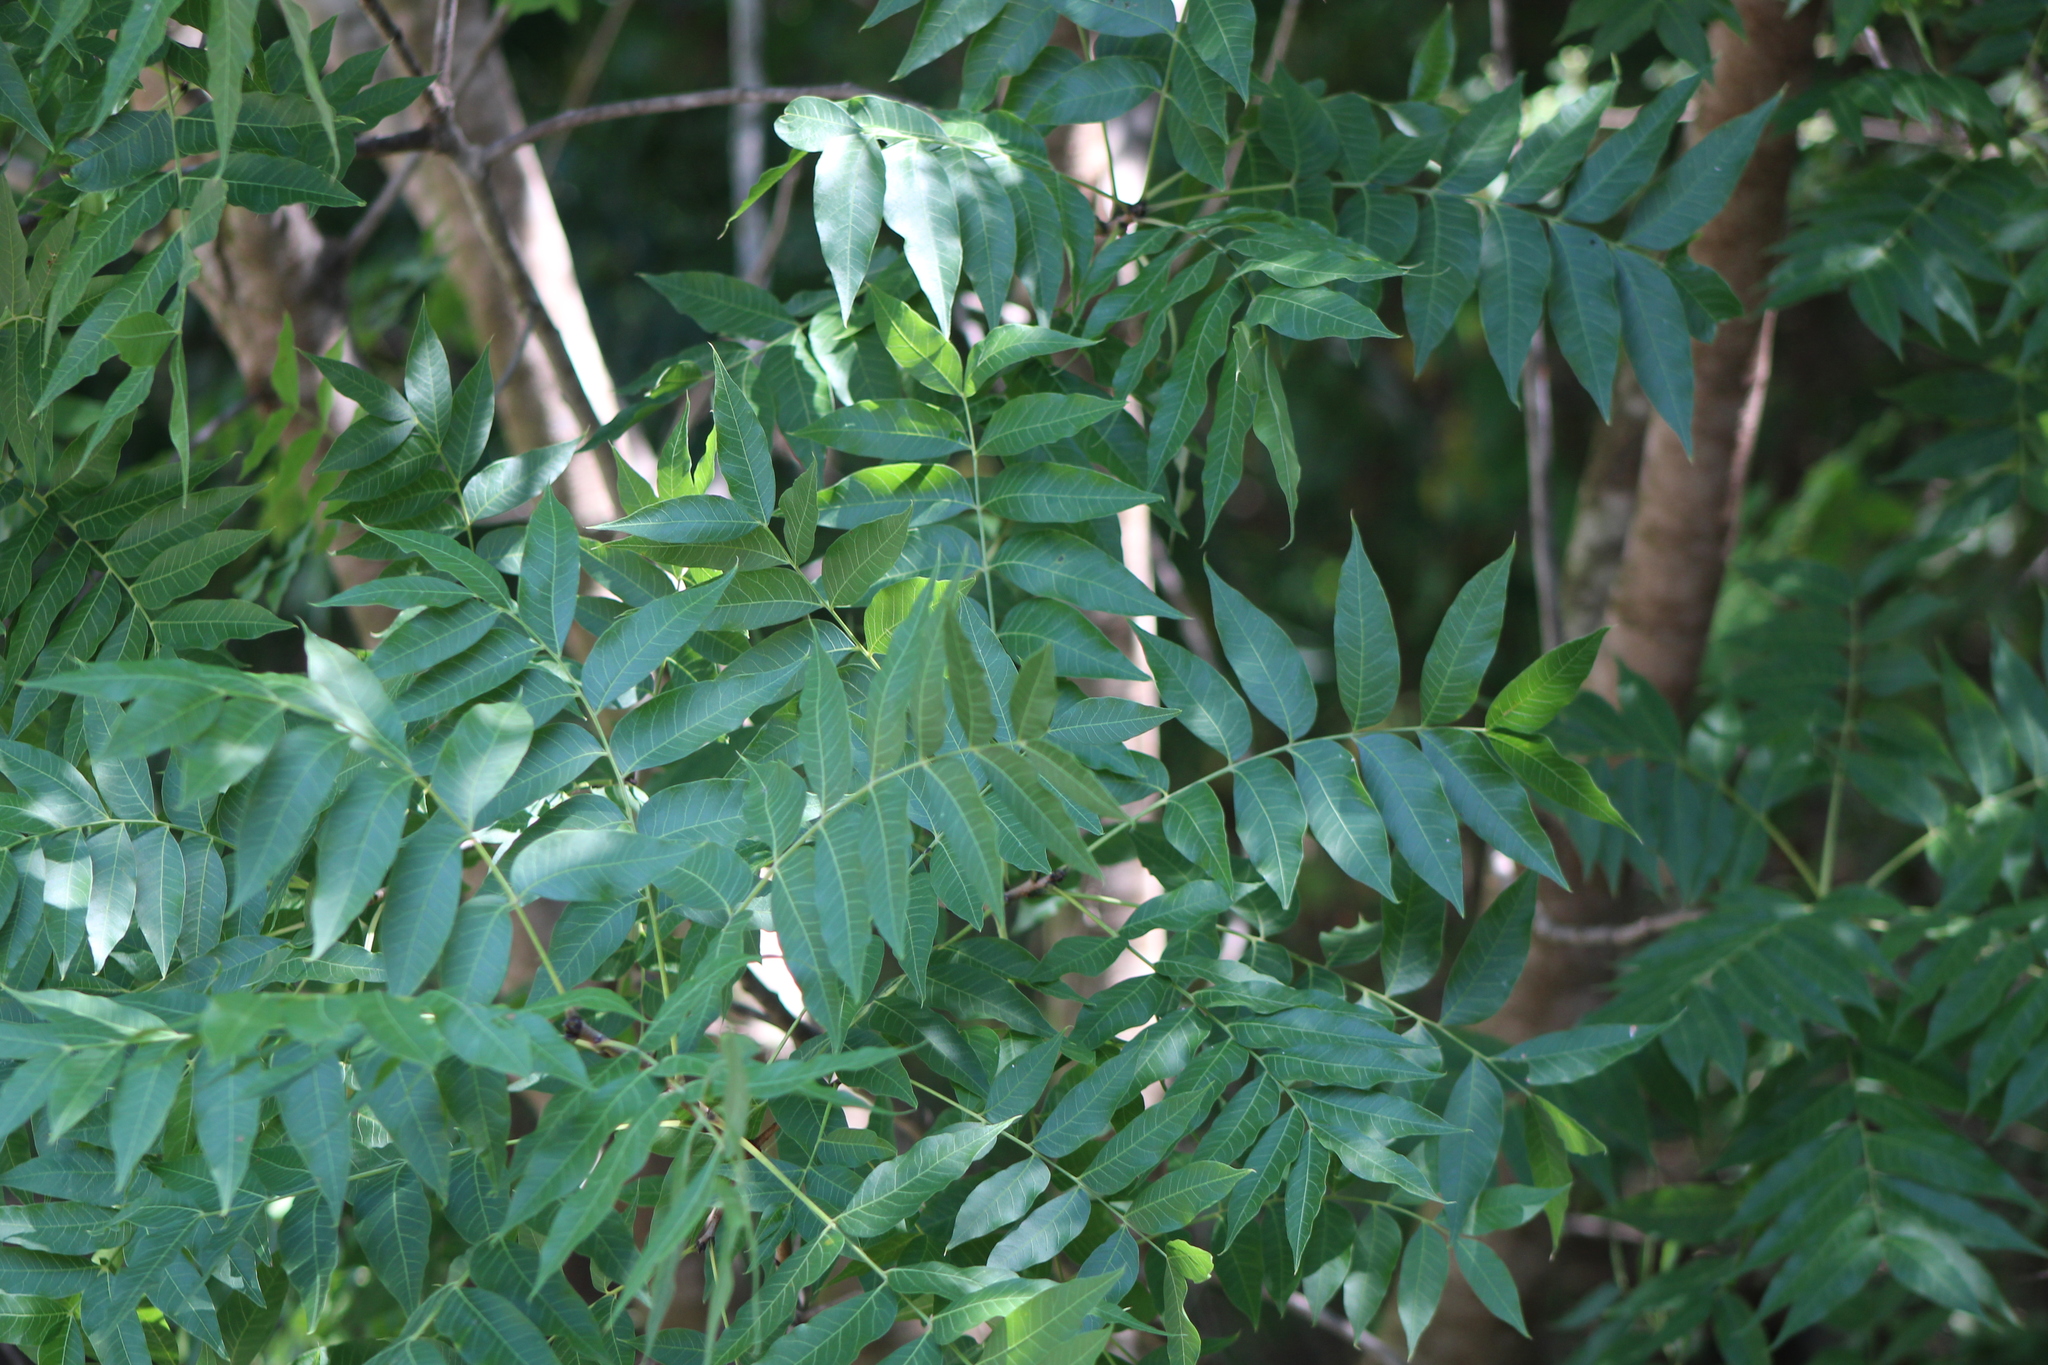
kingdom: Plantae
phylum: Tracheophyta
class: Magnoliopsida
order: Sapindales
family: Anacardiaceae
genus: Pistacia
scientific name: Pistacia chinensis
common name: Chinese pistache
